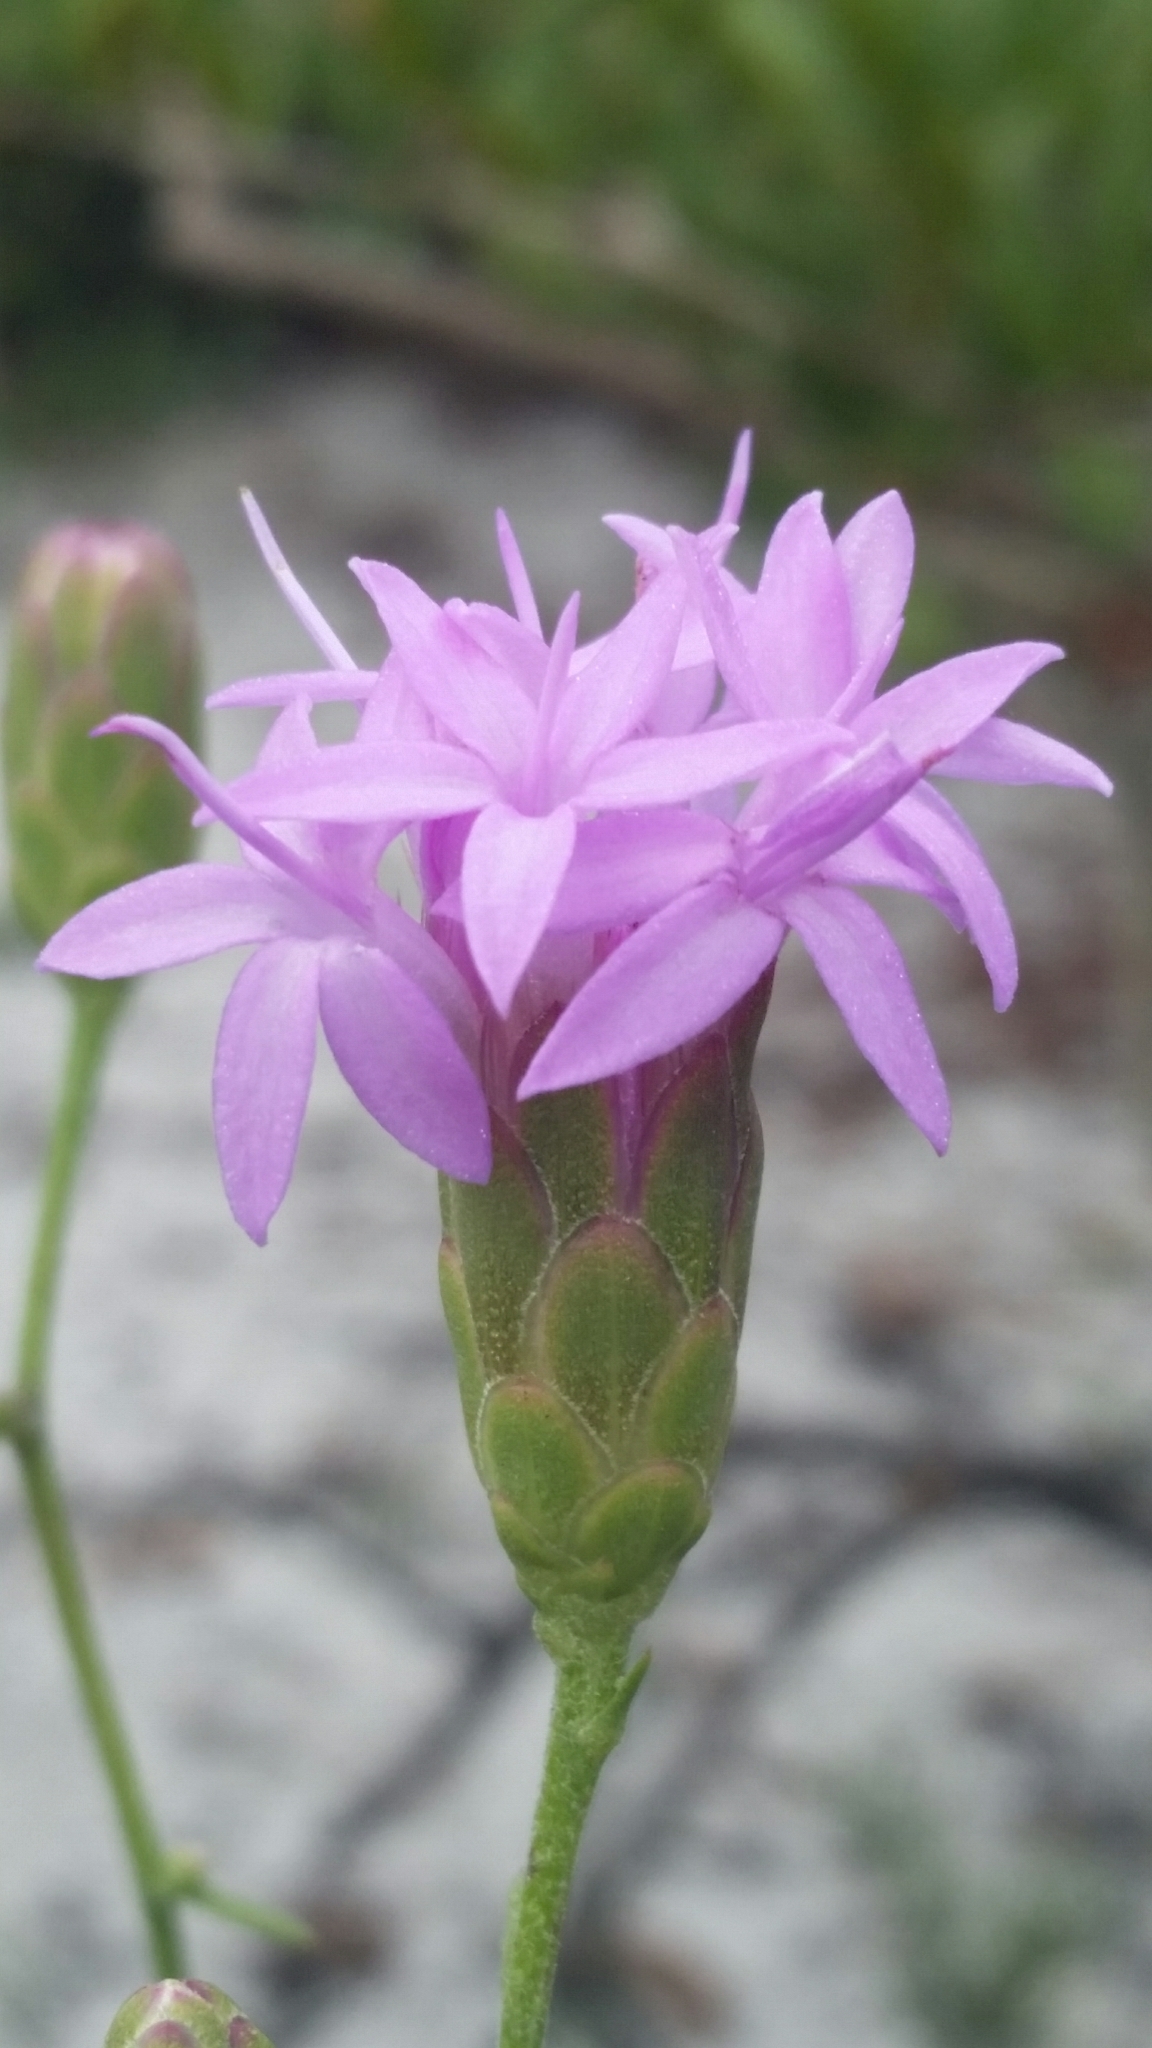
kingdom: Plantae
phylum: Tracheophyta
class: Magnoliopsida
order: Asterales
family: Asteraceae
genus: Liatris
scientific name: Liatris ohlingerae
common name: Scrub blazingstar
